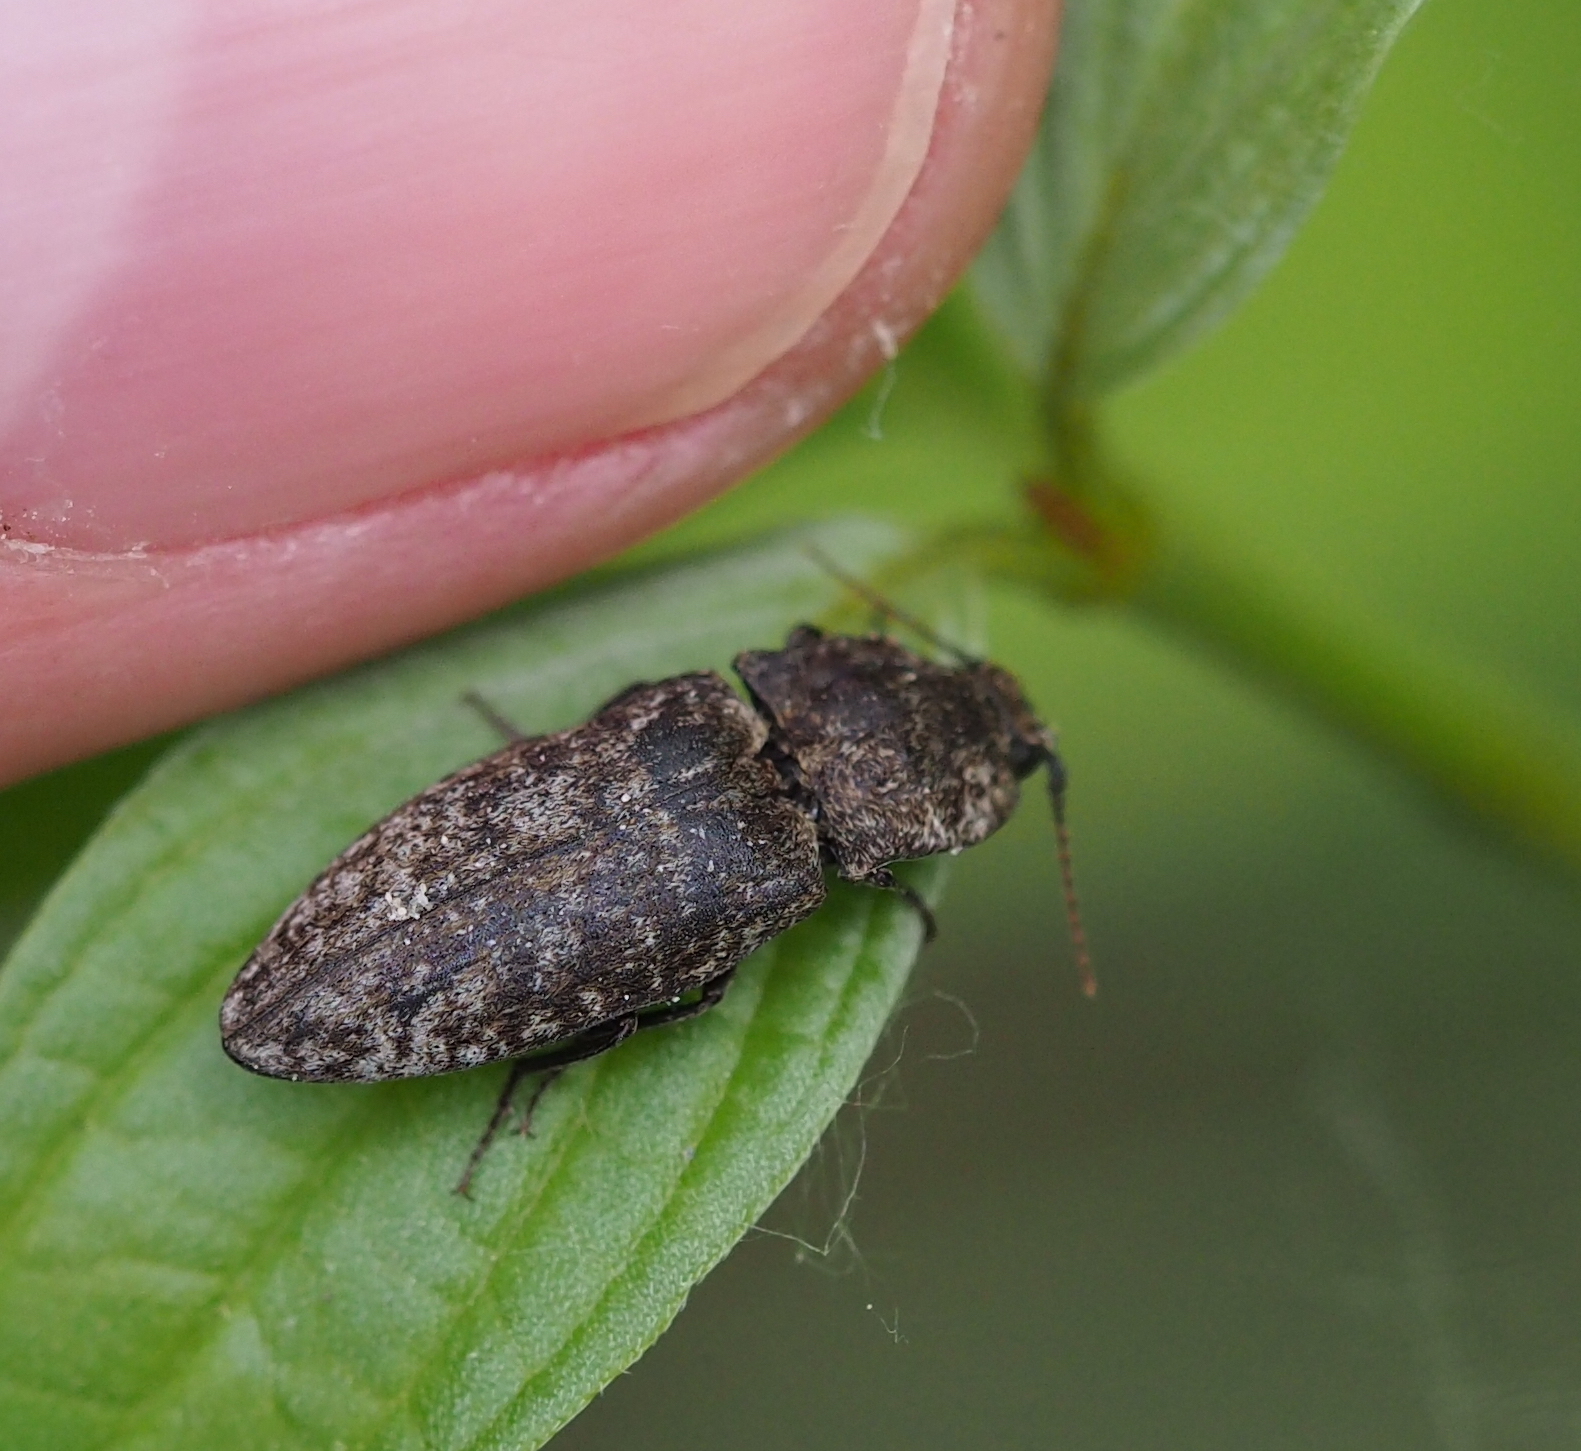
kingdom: Animalia
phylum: Arthropoda
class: Insecta
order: Coleoptera
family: Elateridae
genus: Agrypnus
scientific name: Agrypnus murinus
